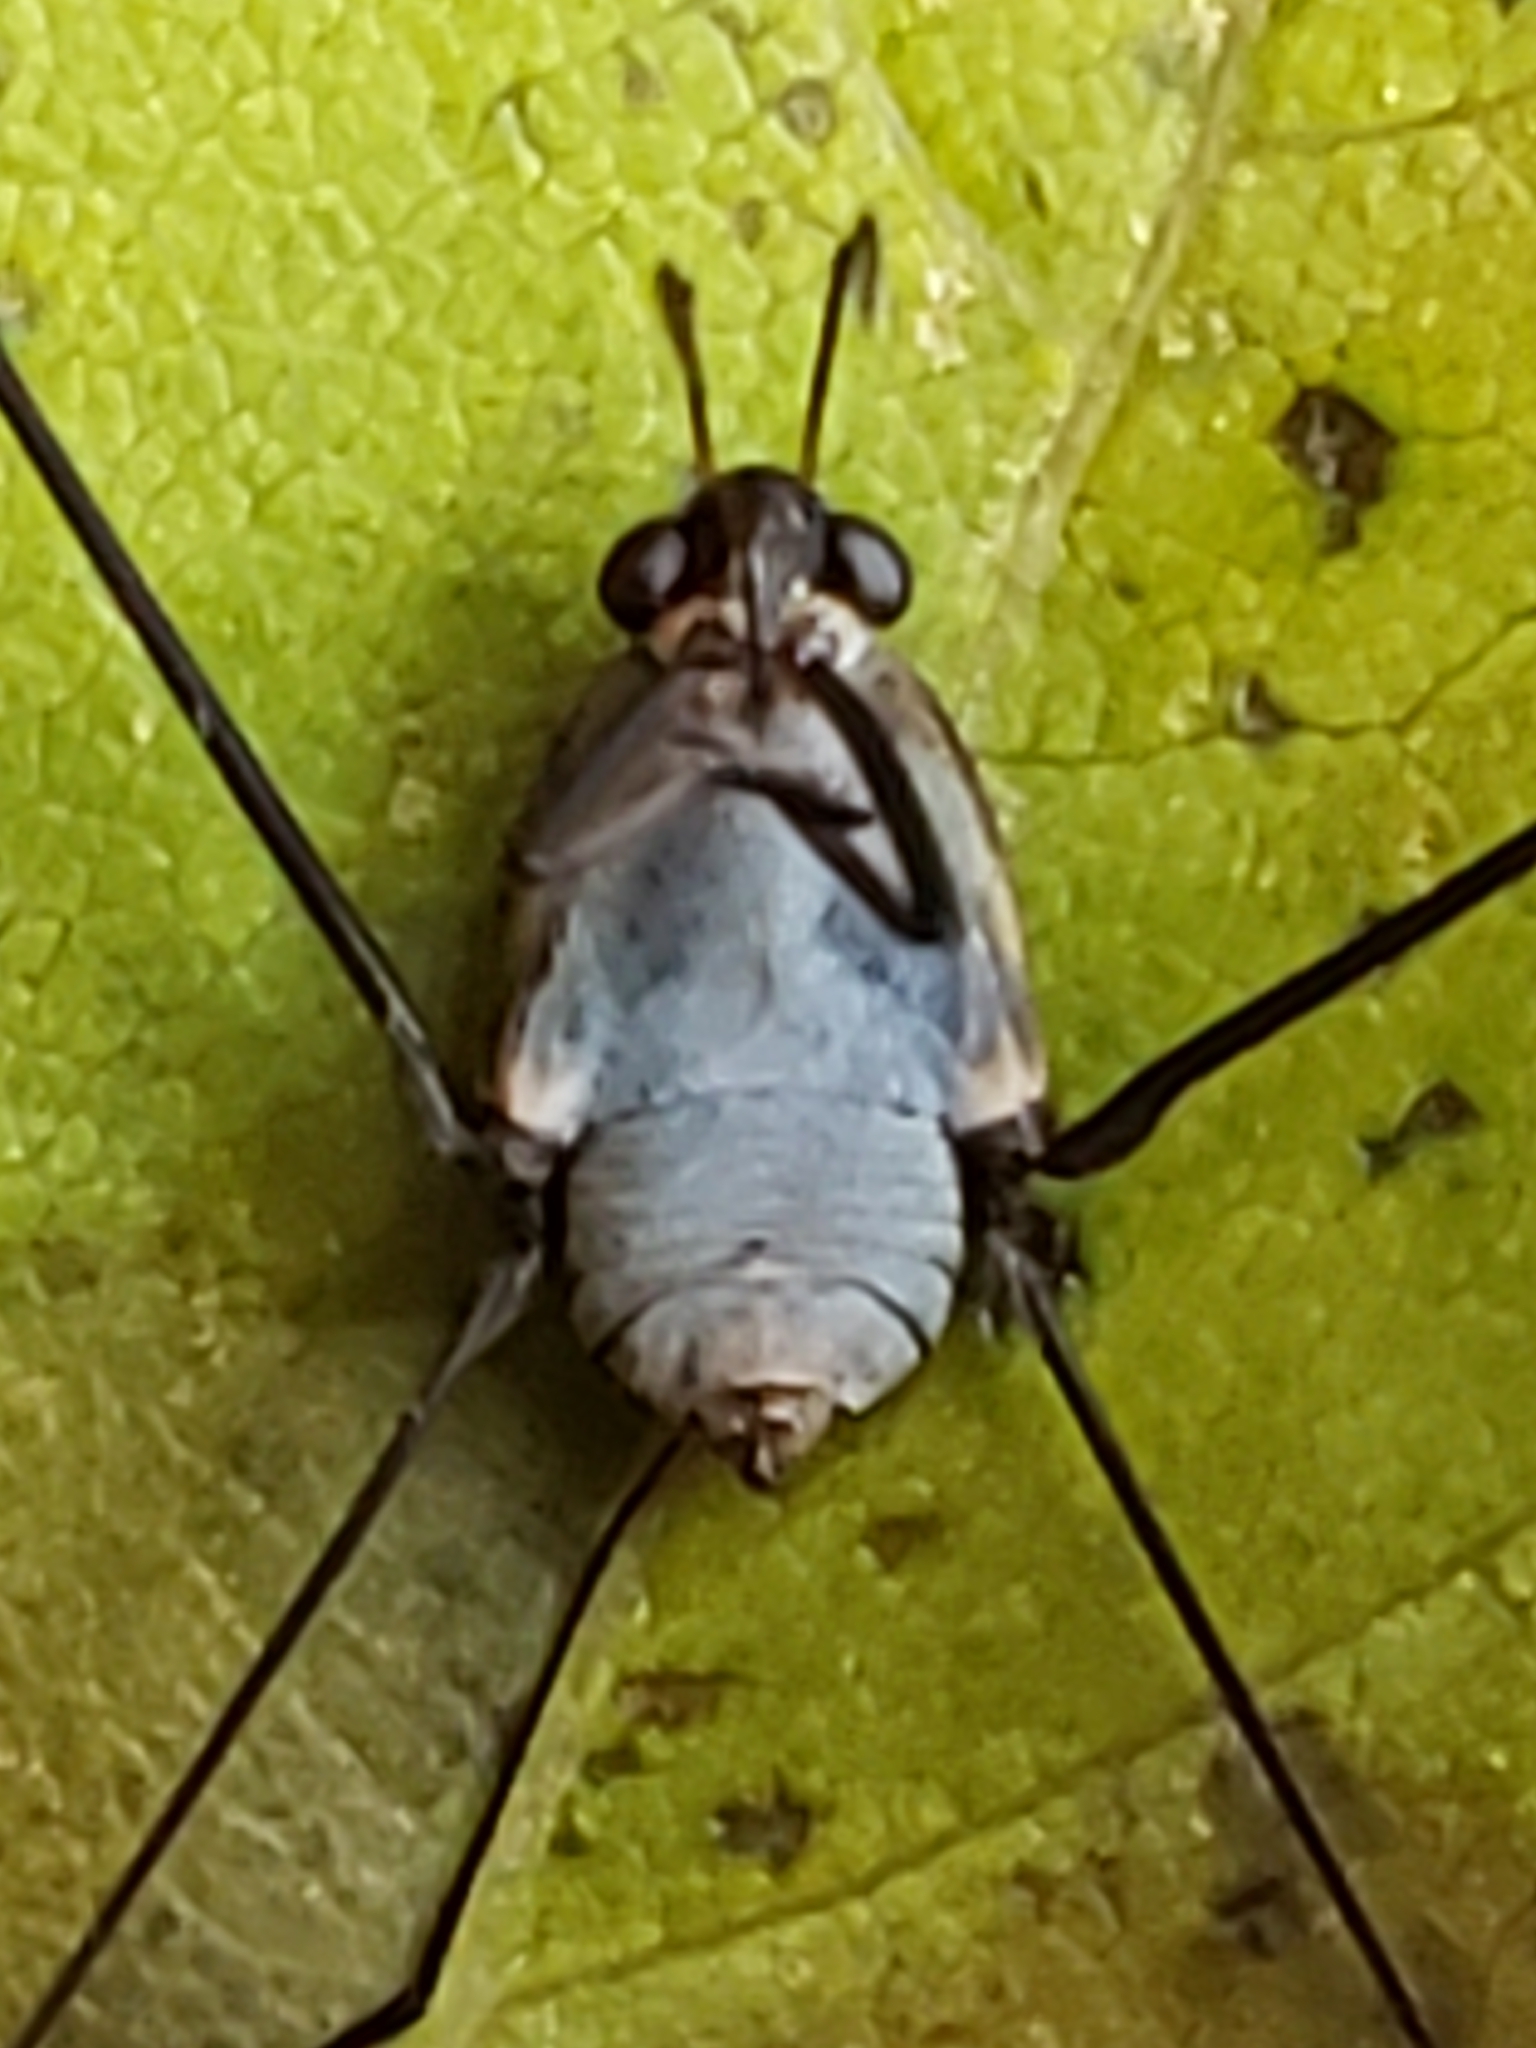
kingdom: Animalia
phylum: Arthropoda
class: Insecta
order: Hemiptera
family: Gerridae
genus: Metrobates
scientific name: Metrobates hesperius
